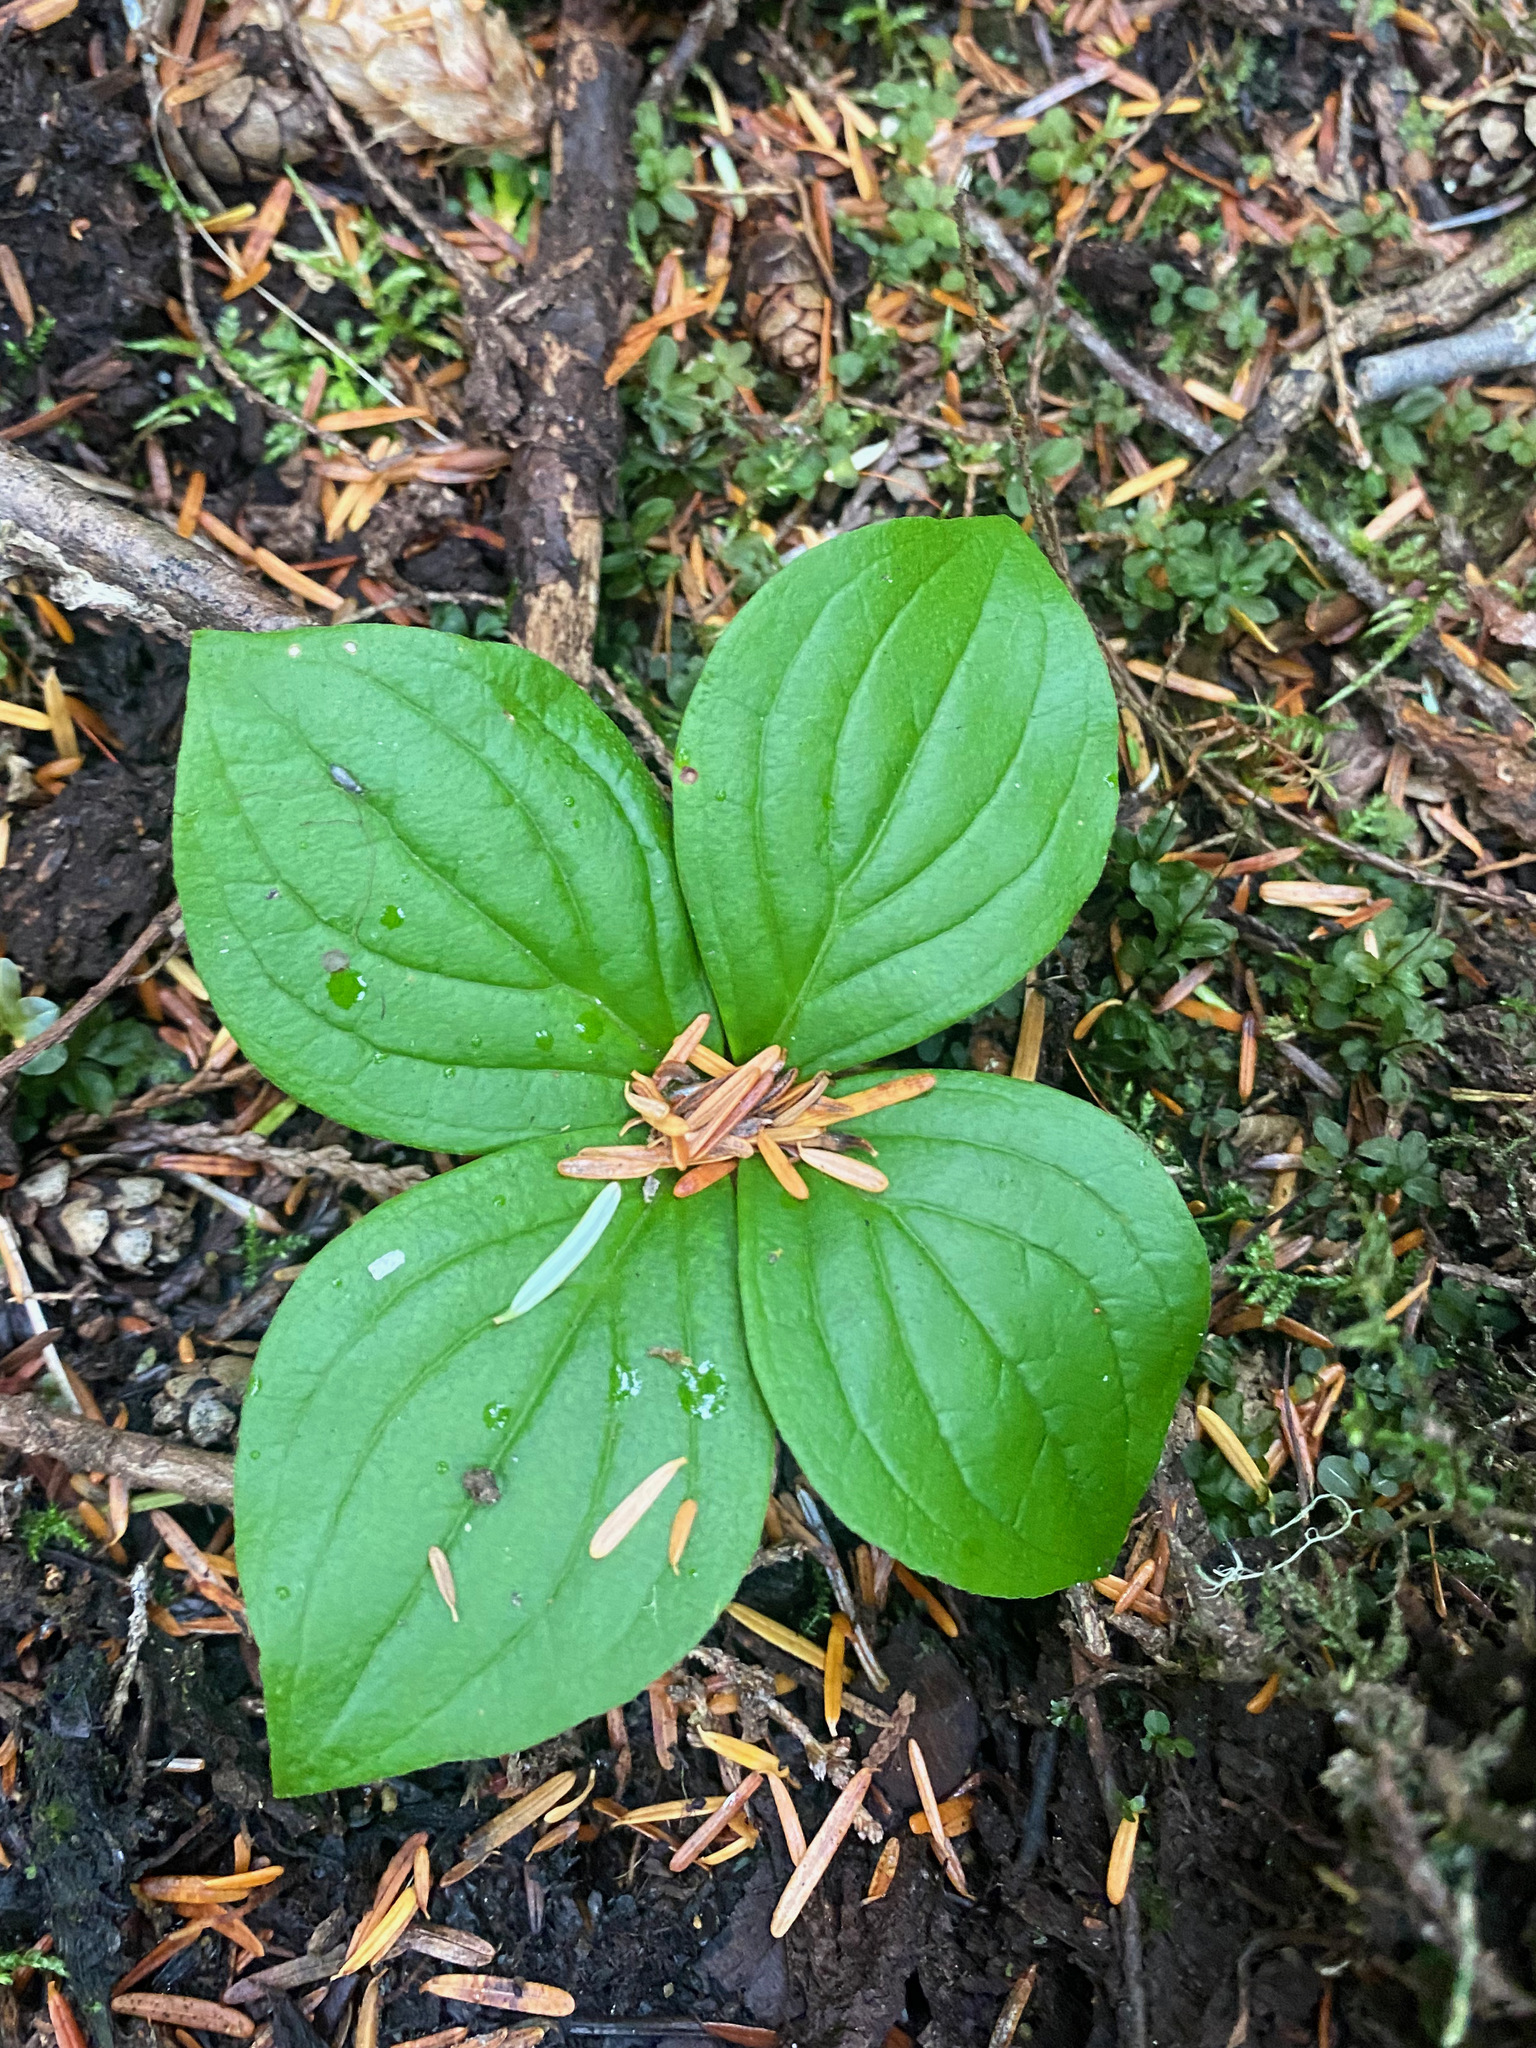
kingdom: Plantae
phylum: Tracheophyta
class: Magnoliopsida
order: Cornales
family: Cornaceae
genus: Cornus
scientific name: Cornus unalaschkensis
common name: Alaska bunchberry
